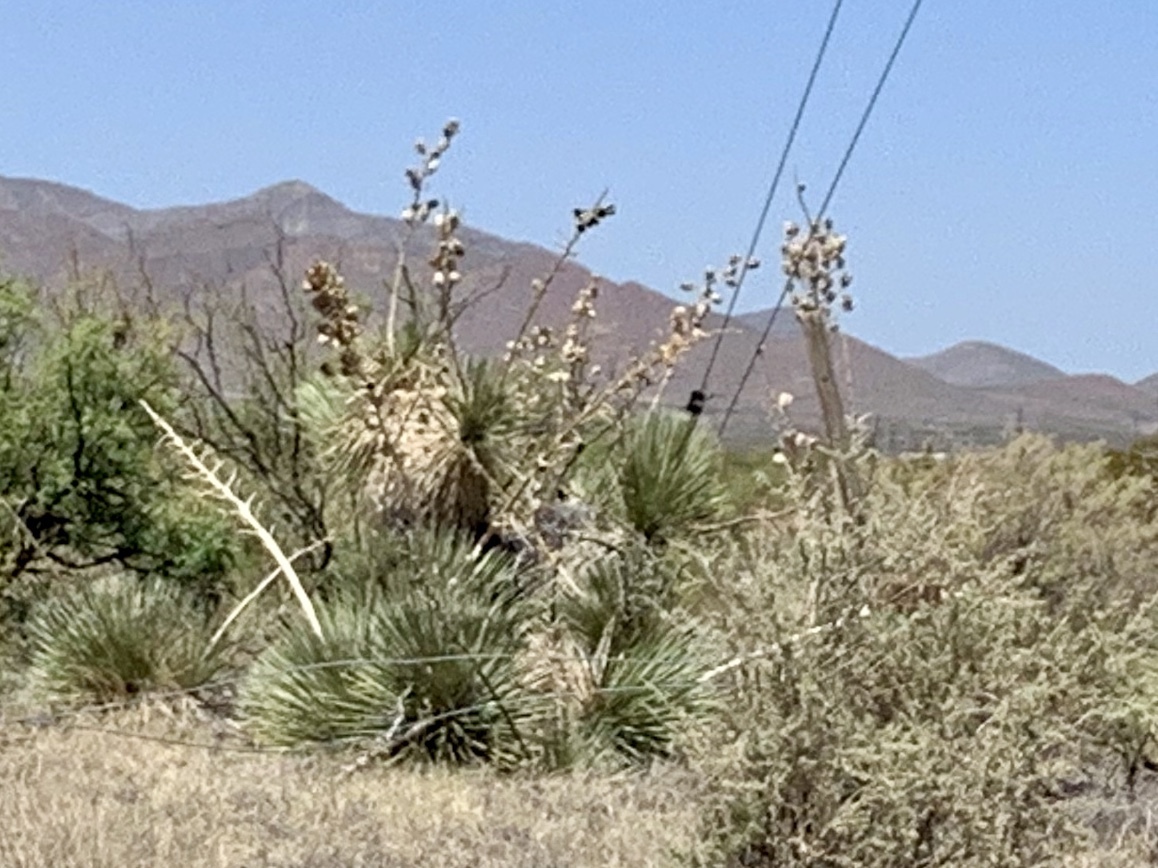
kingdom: Plantae
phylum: Tracheophyta
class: Liliopsida
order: Asparagales
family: Asparagaceae
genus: Yucca
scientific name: Yucca elata
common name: Palmella
